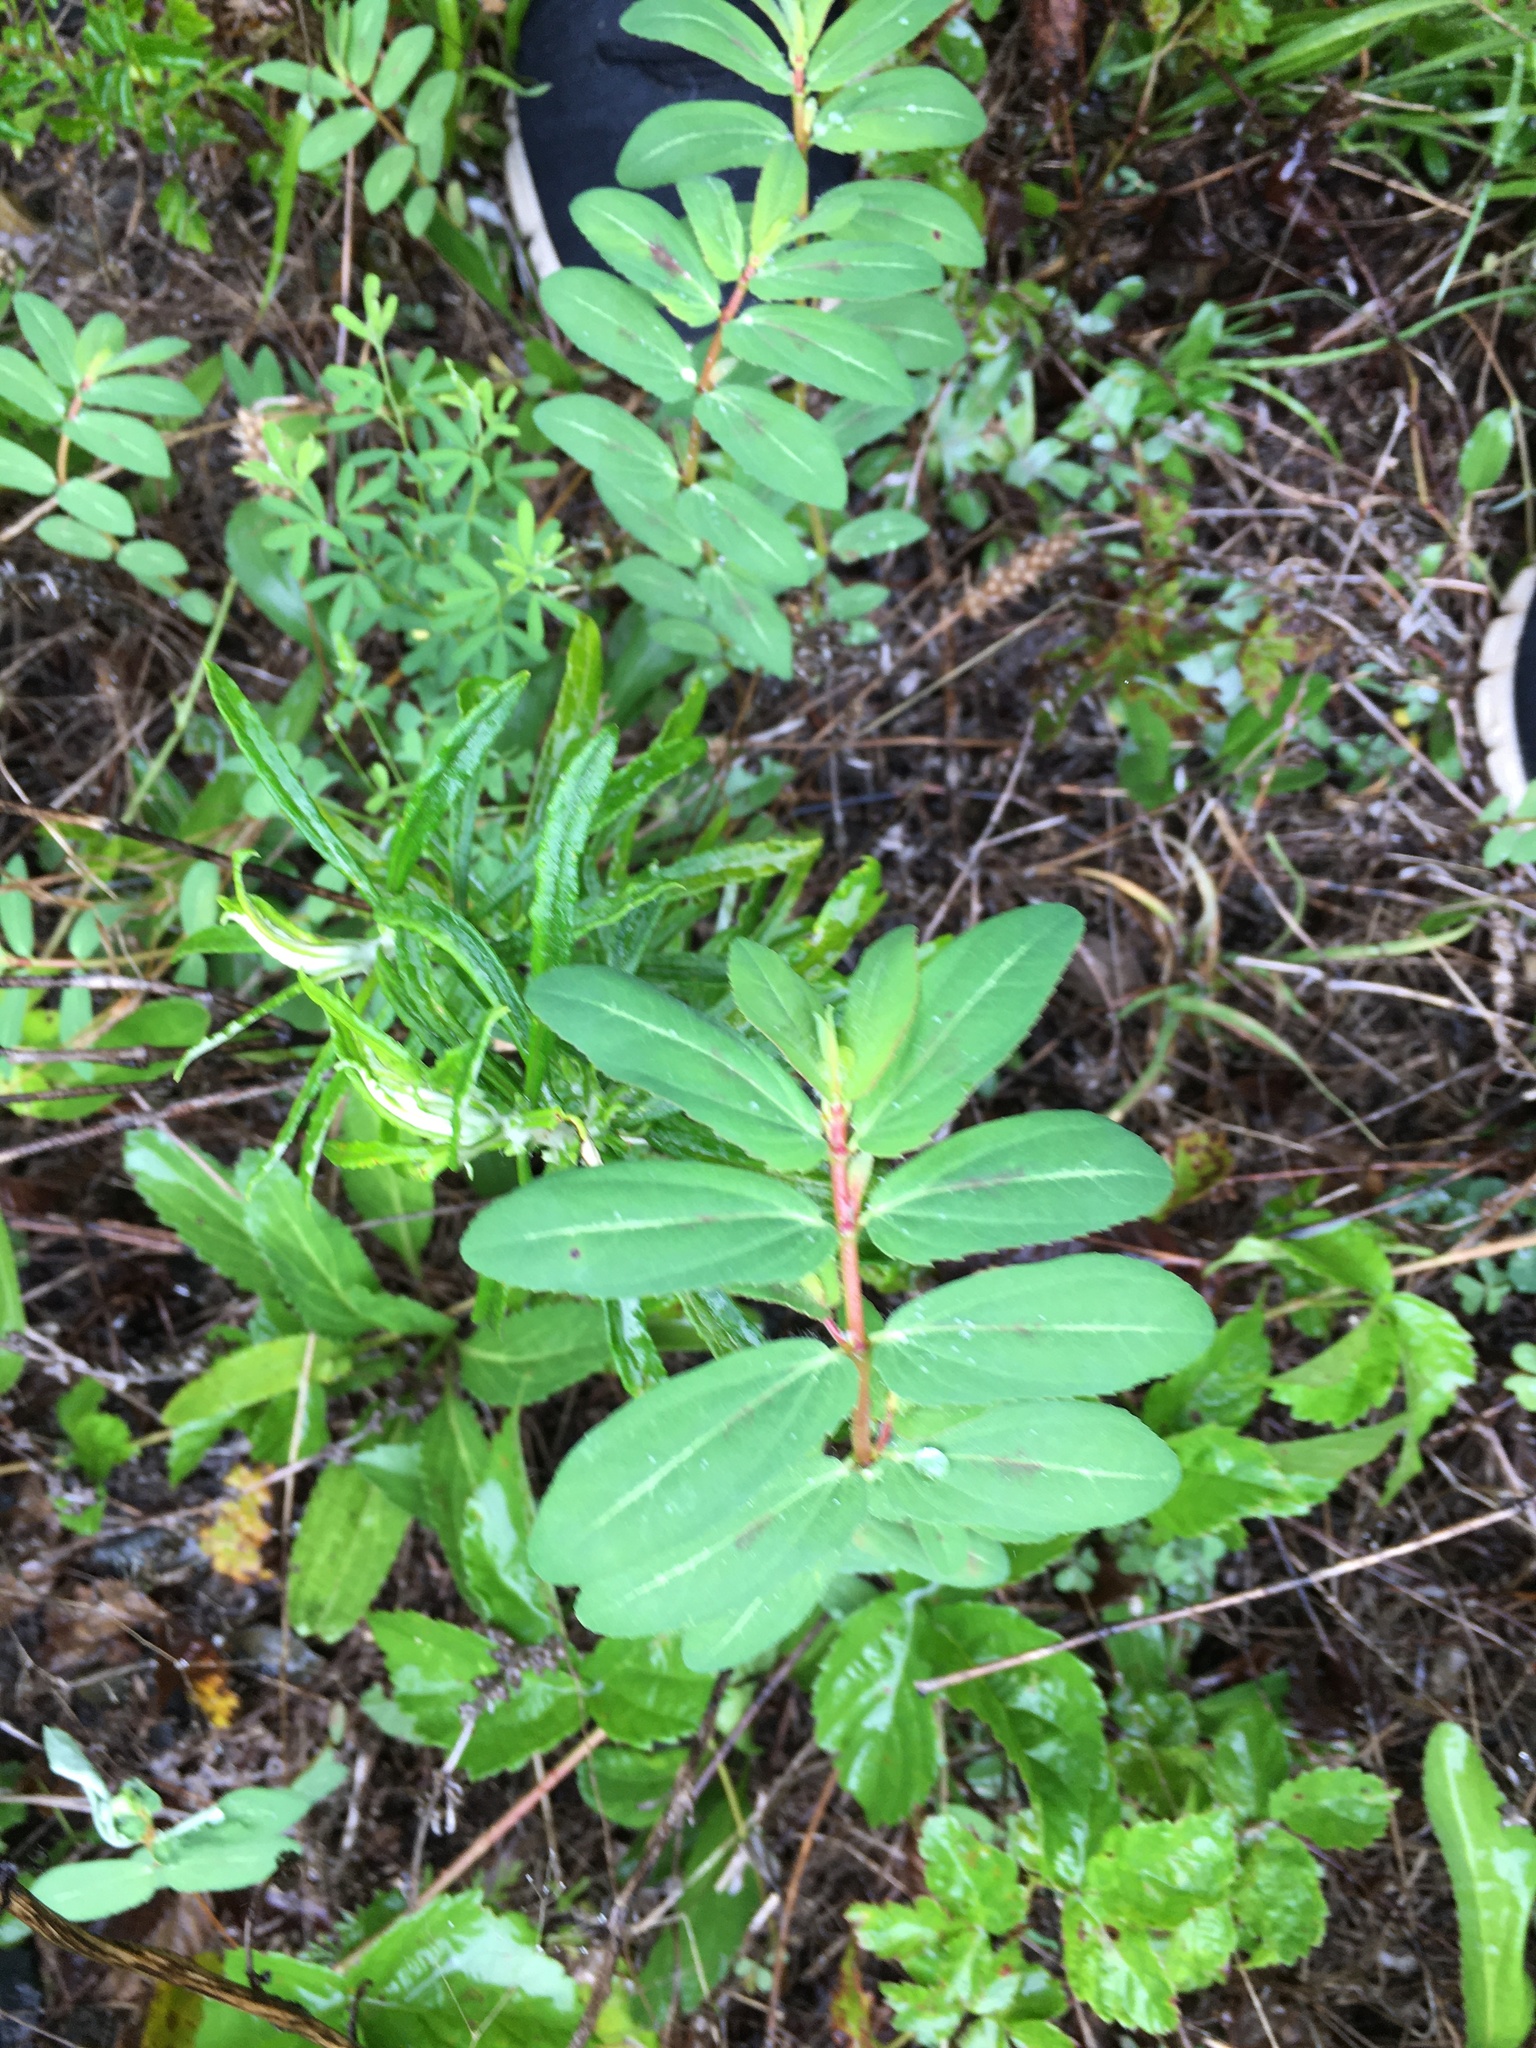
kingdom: Plantae
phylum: Tracheophyta
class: Magnoliopsida
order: Malpighiales
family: Euphorbiaceae
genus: Euphorbia
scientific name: Euphorbia nutans
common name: Eyebane
